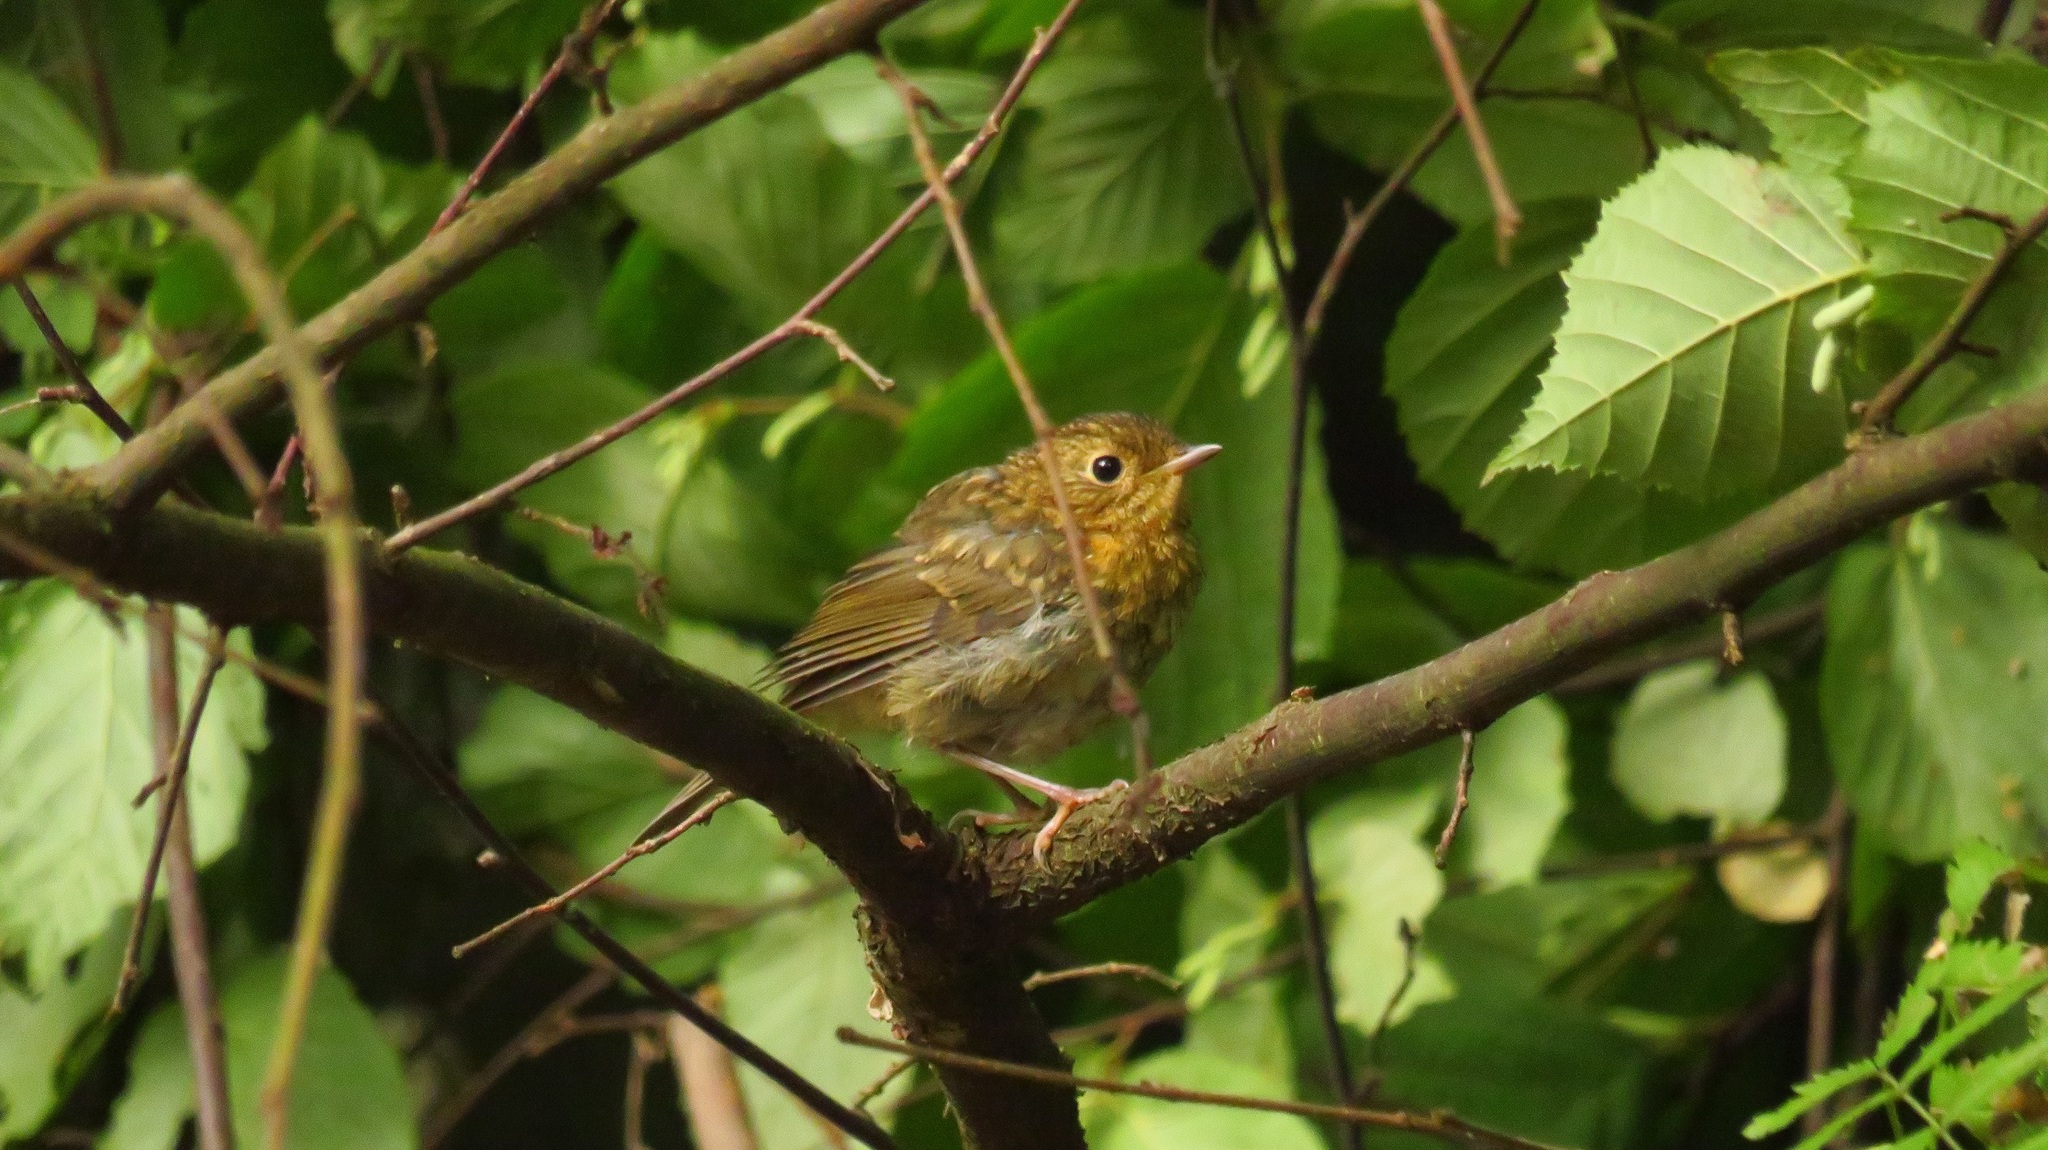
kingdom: Animalia
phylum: Chordata
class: Aves
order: Passeriformes
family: Muscicapidae
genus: Erithacus
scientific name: Erithacus rubecula
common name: European robin
